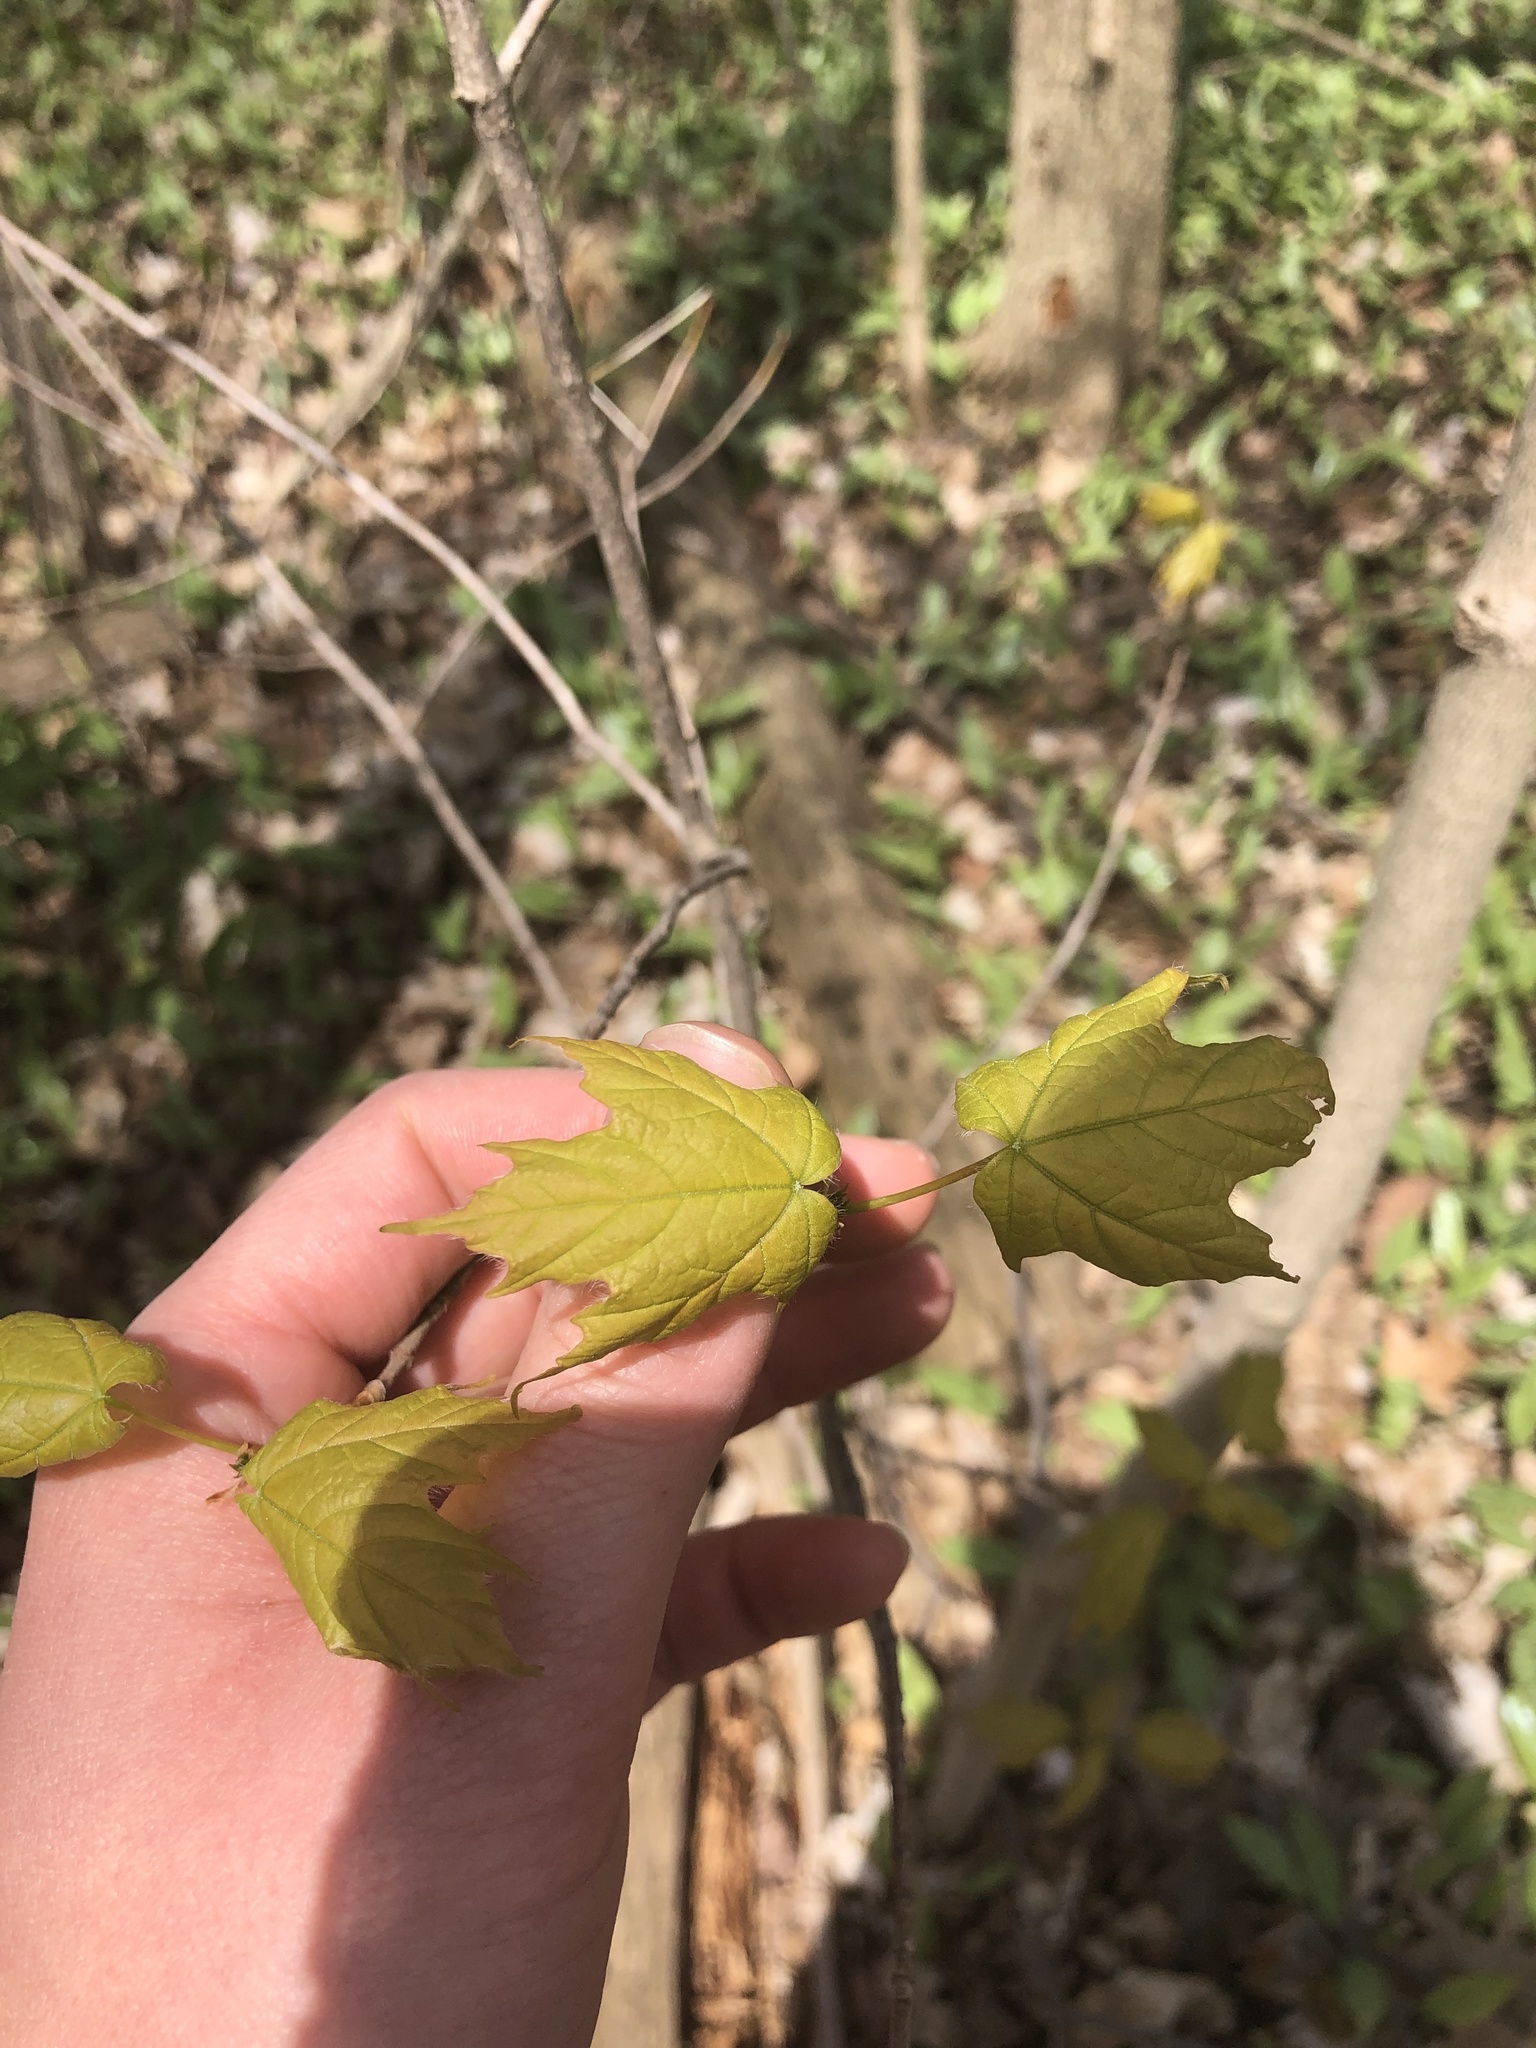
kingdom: Plantae
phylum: Tracheophyta
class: Magnoliopsida
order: Sapindales
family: Sapindaceae
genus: Acer
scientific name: Acer saccharum
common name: Sugar maple
